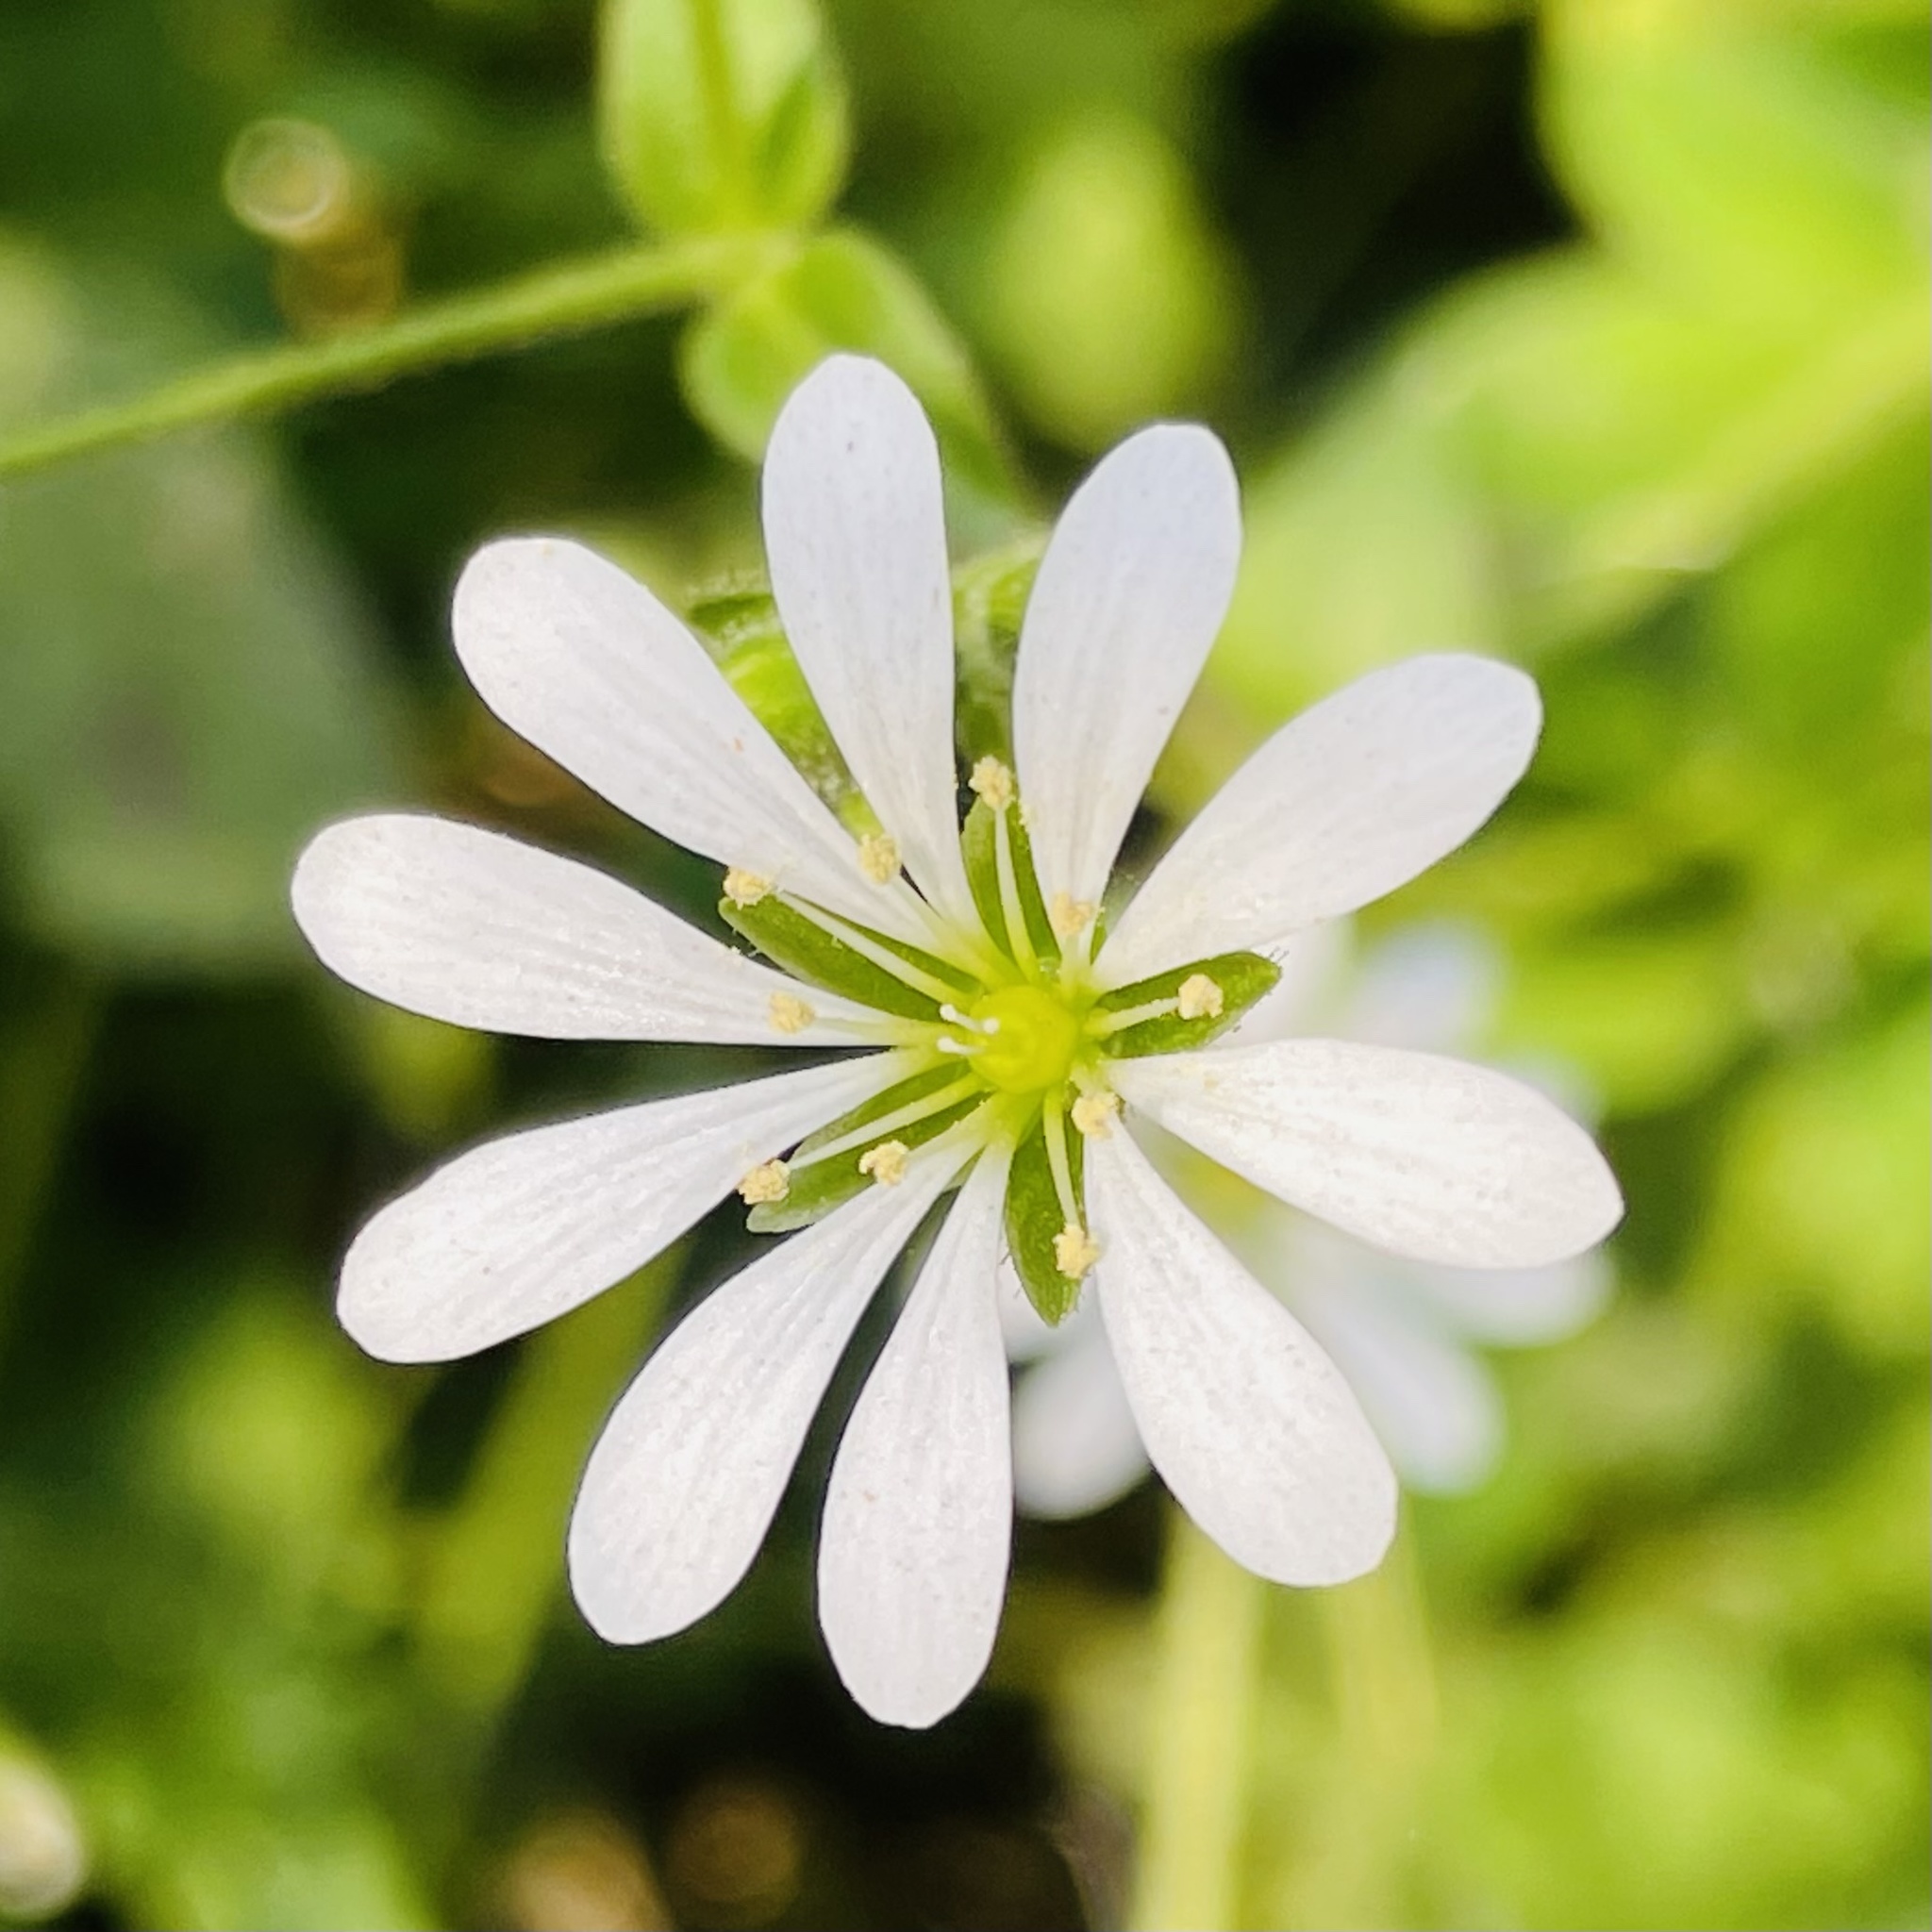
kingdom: Plantae
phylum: Tracheophyta
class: Magnoliopsida
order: Caryophyllales
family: Caryophyllaceae
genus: Stellaria
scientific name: Stellaria chilensis
